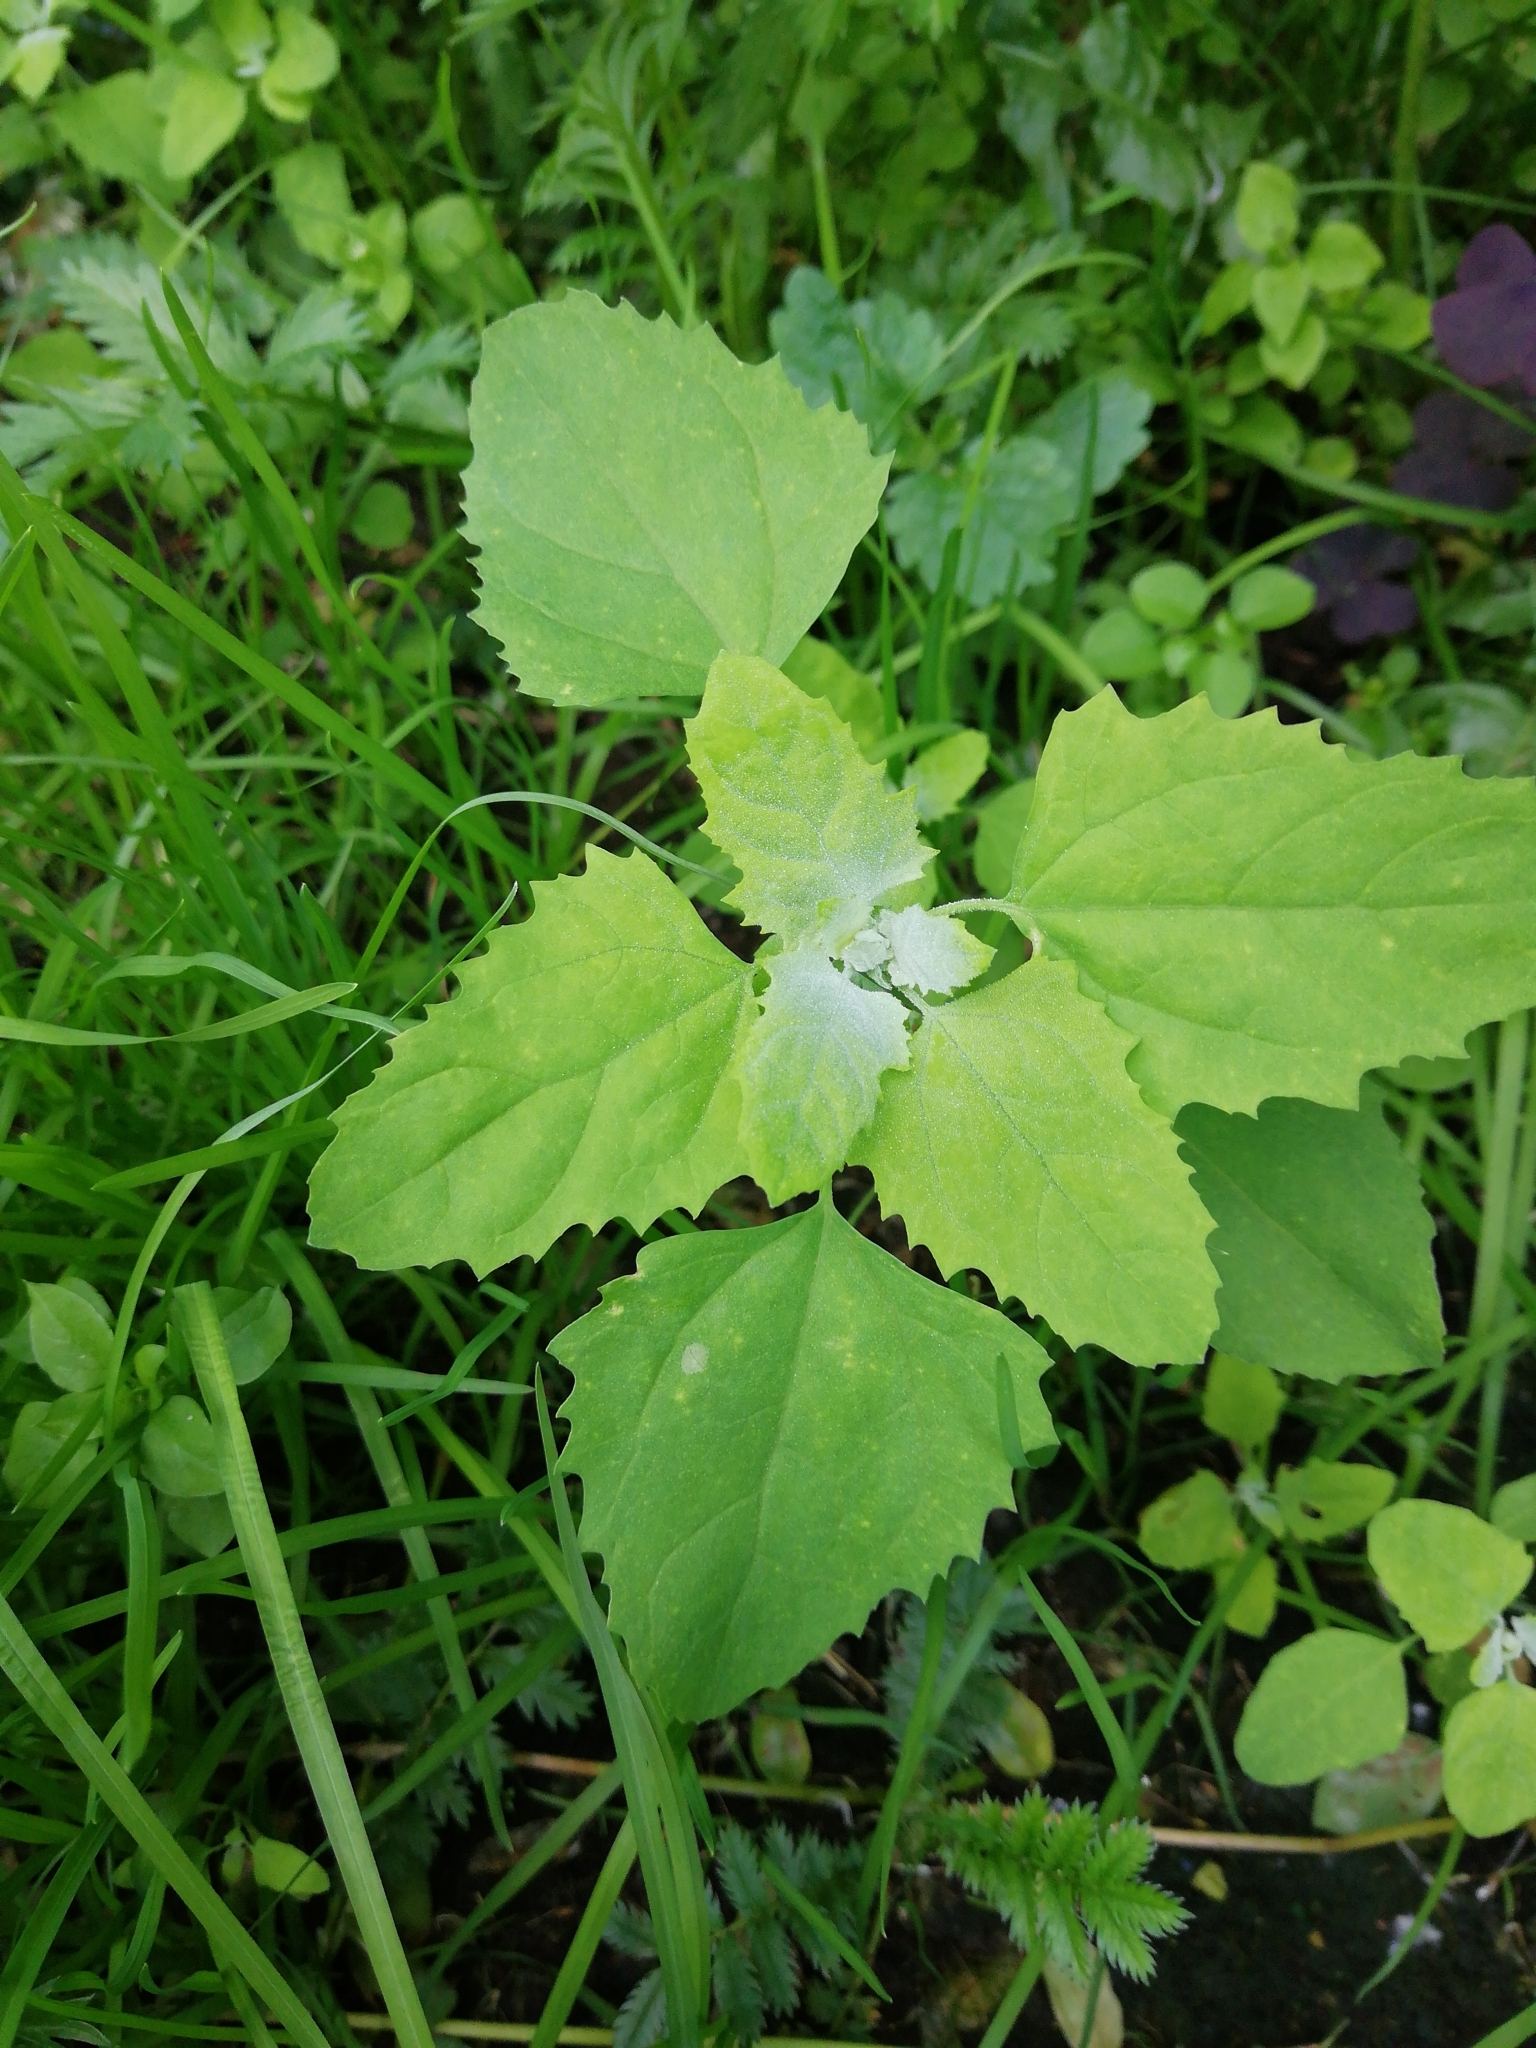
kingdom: Plantae
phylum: Tracheophyta
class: Magnoliopsida
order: Caryophyllales
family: Amaranthaceae
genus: Chenopodium
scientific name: Chenopodium album
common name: Fat-hen
